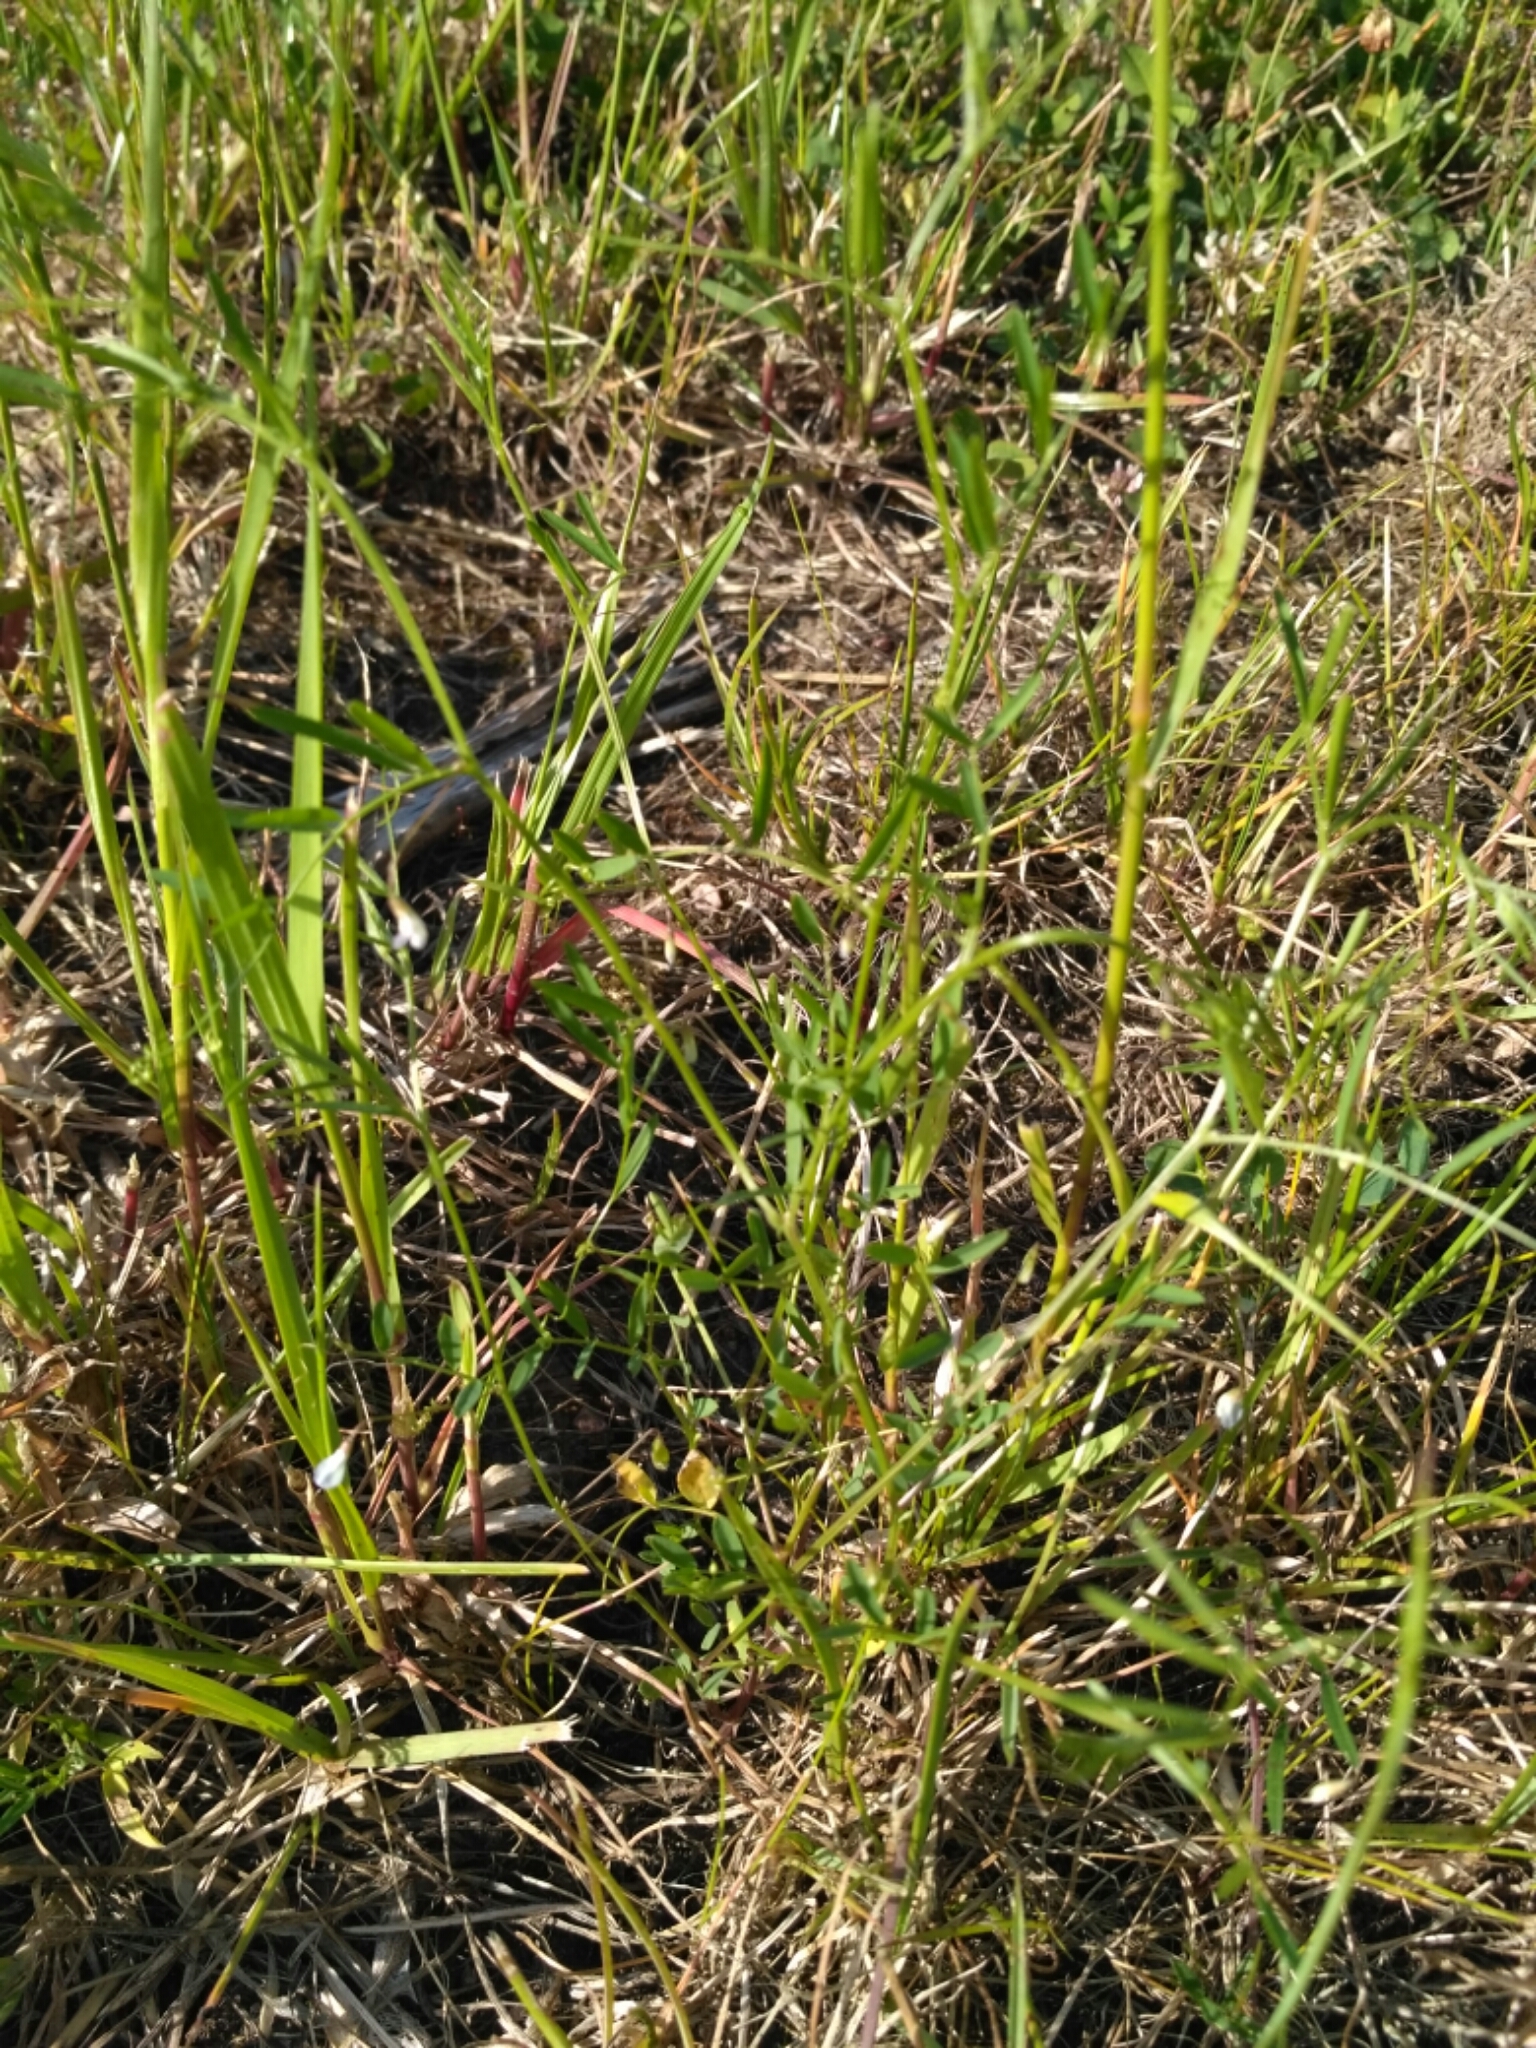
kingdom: Plantae
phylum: Tracheophyta
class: Magnoliopsida
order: Fabales
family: Fabaceae
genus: Vicia
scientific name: Vicia hirsuta
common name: Tiny vetch
